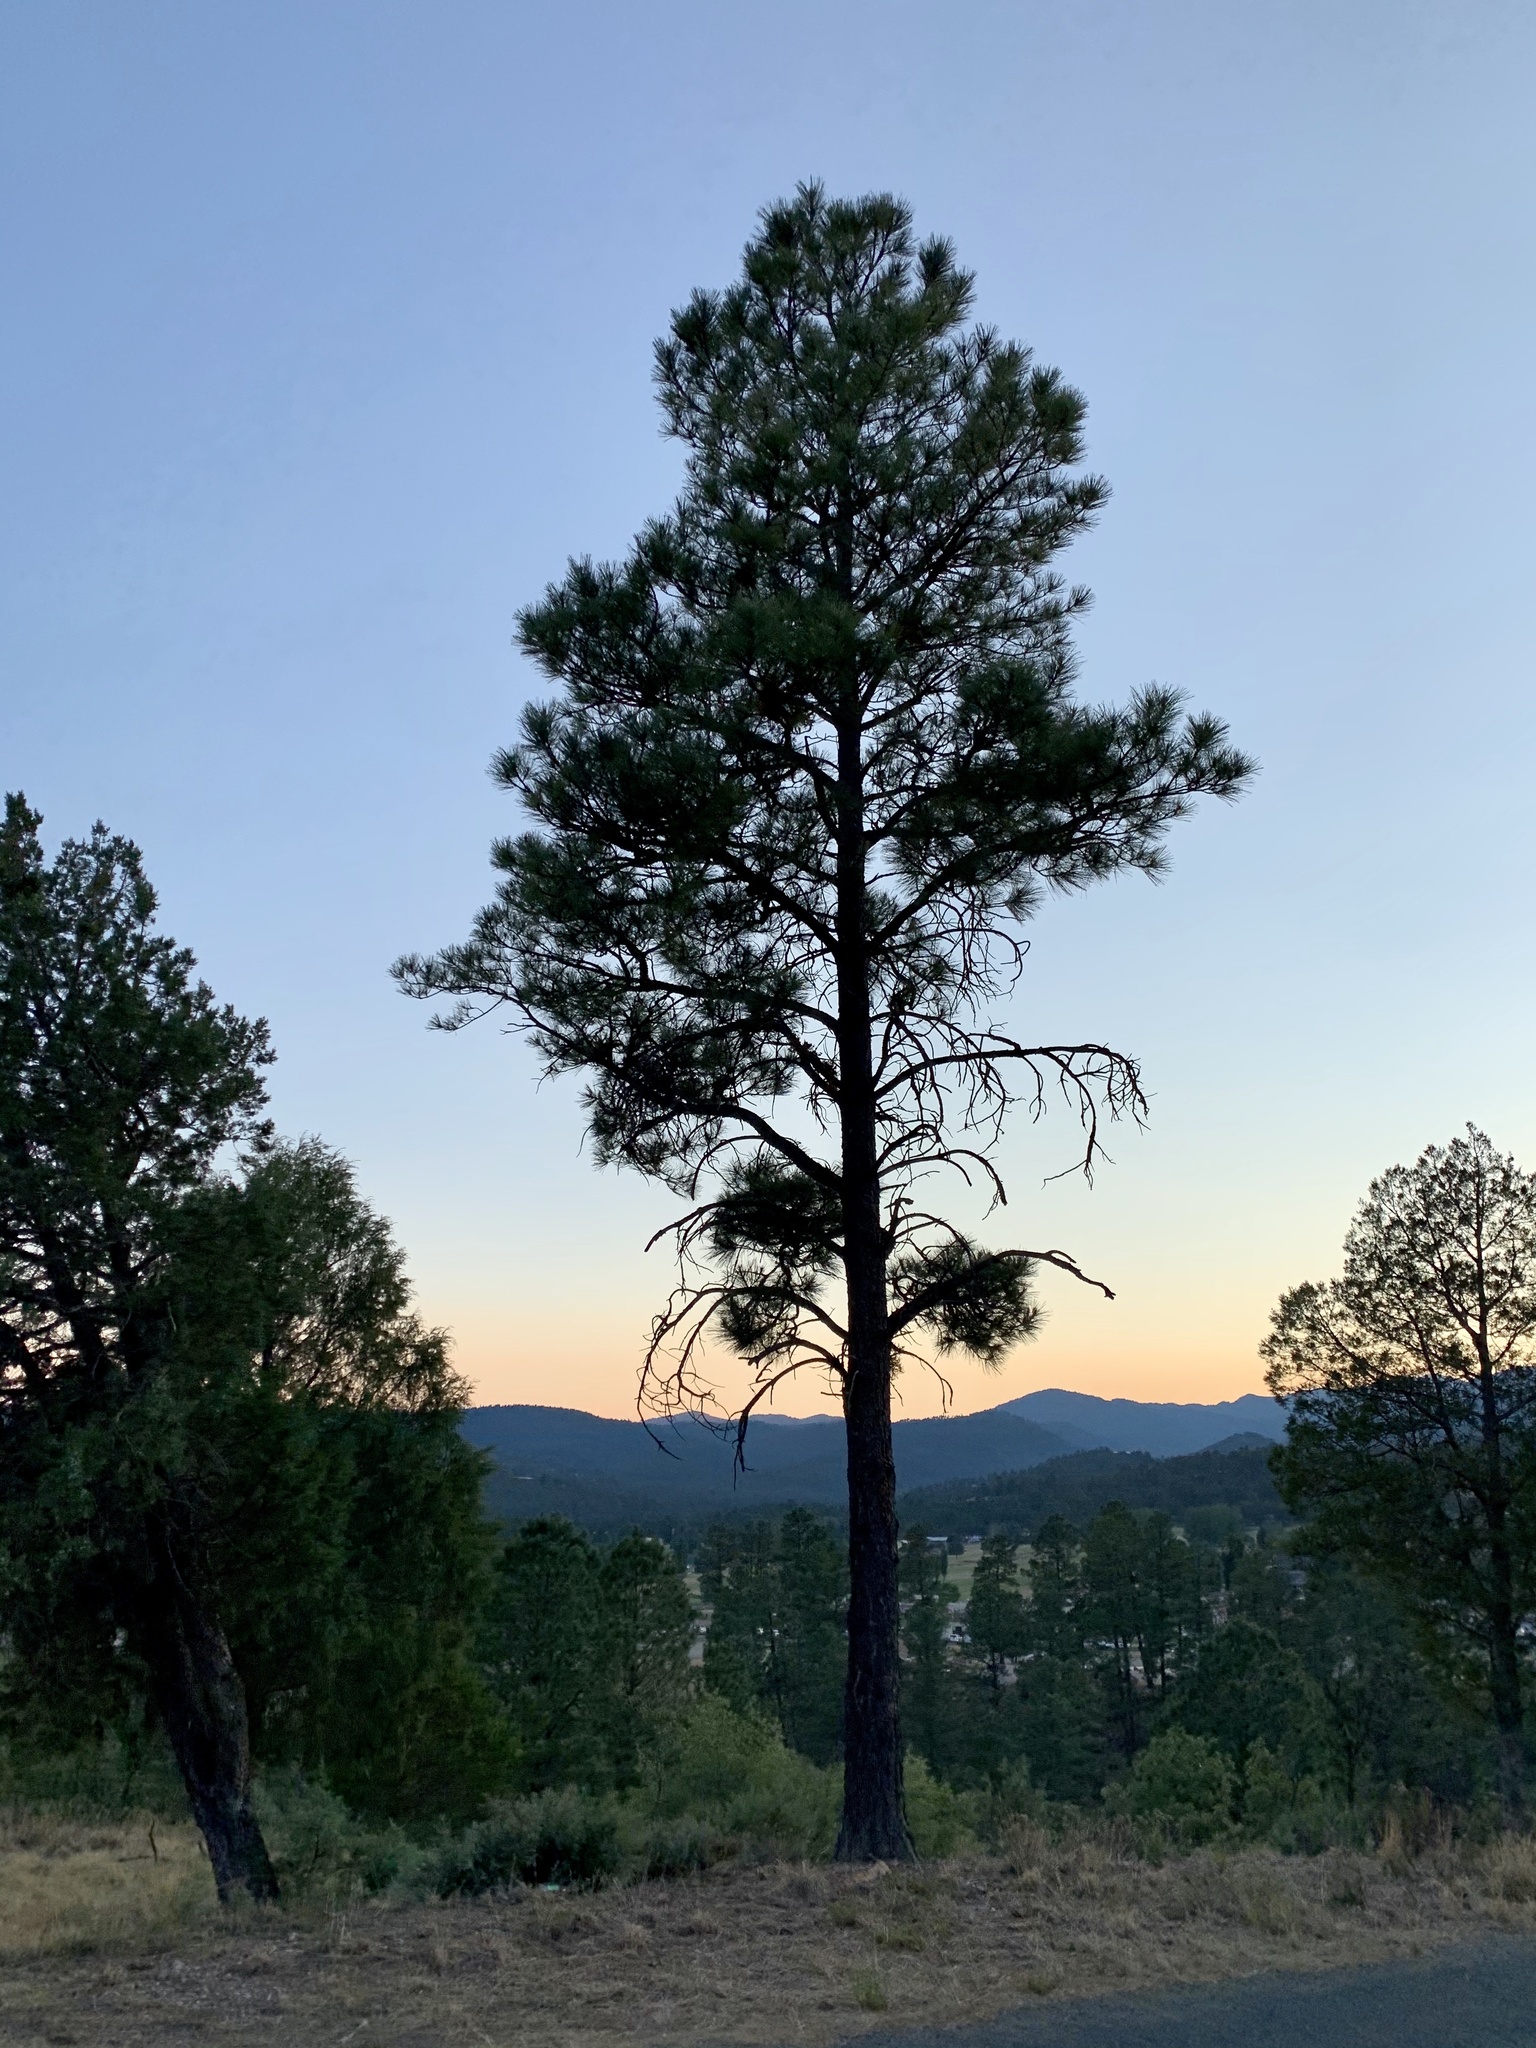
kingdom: Plantae
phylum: Tracheophyta
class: Pinopsida
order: Pinales
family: Pinaceae
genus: Pinus
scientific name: Pinus ponderosa
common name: Western yellow-pine
